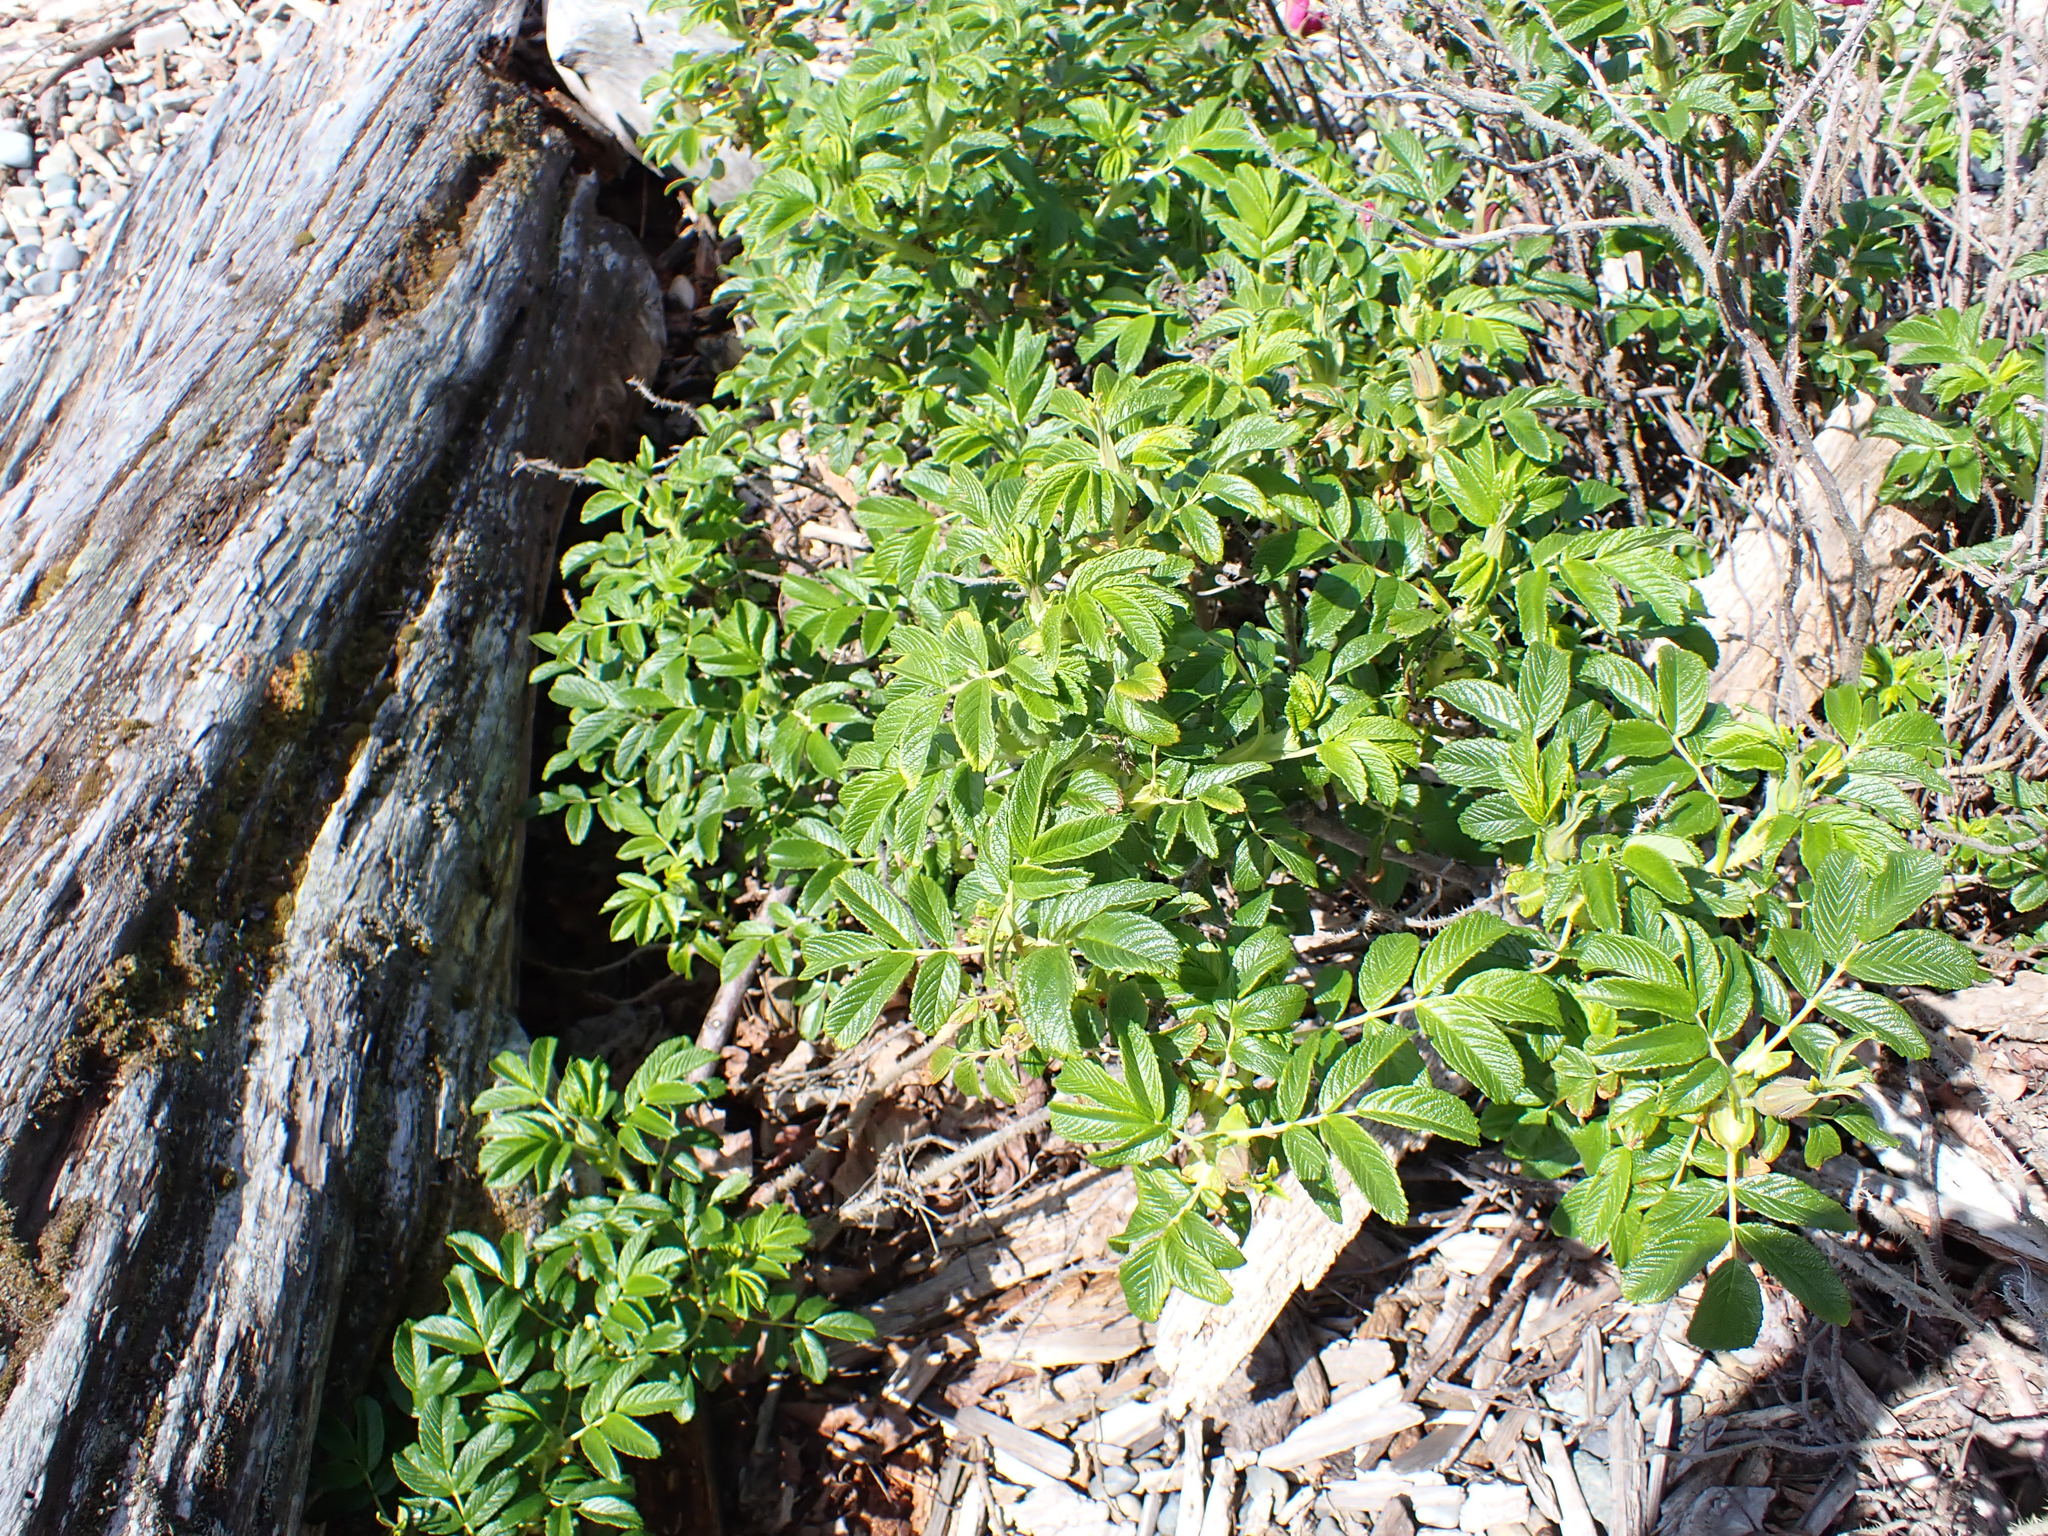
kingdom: Plantae
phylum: Tracheophyta
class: Magnoliopsida
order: Rosales
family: Rosaceae
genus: Rosa
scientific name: Rosa rugosa
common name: Japanese rose
